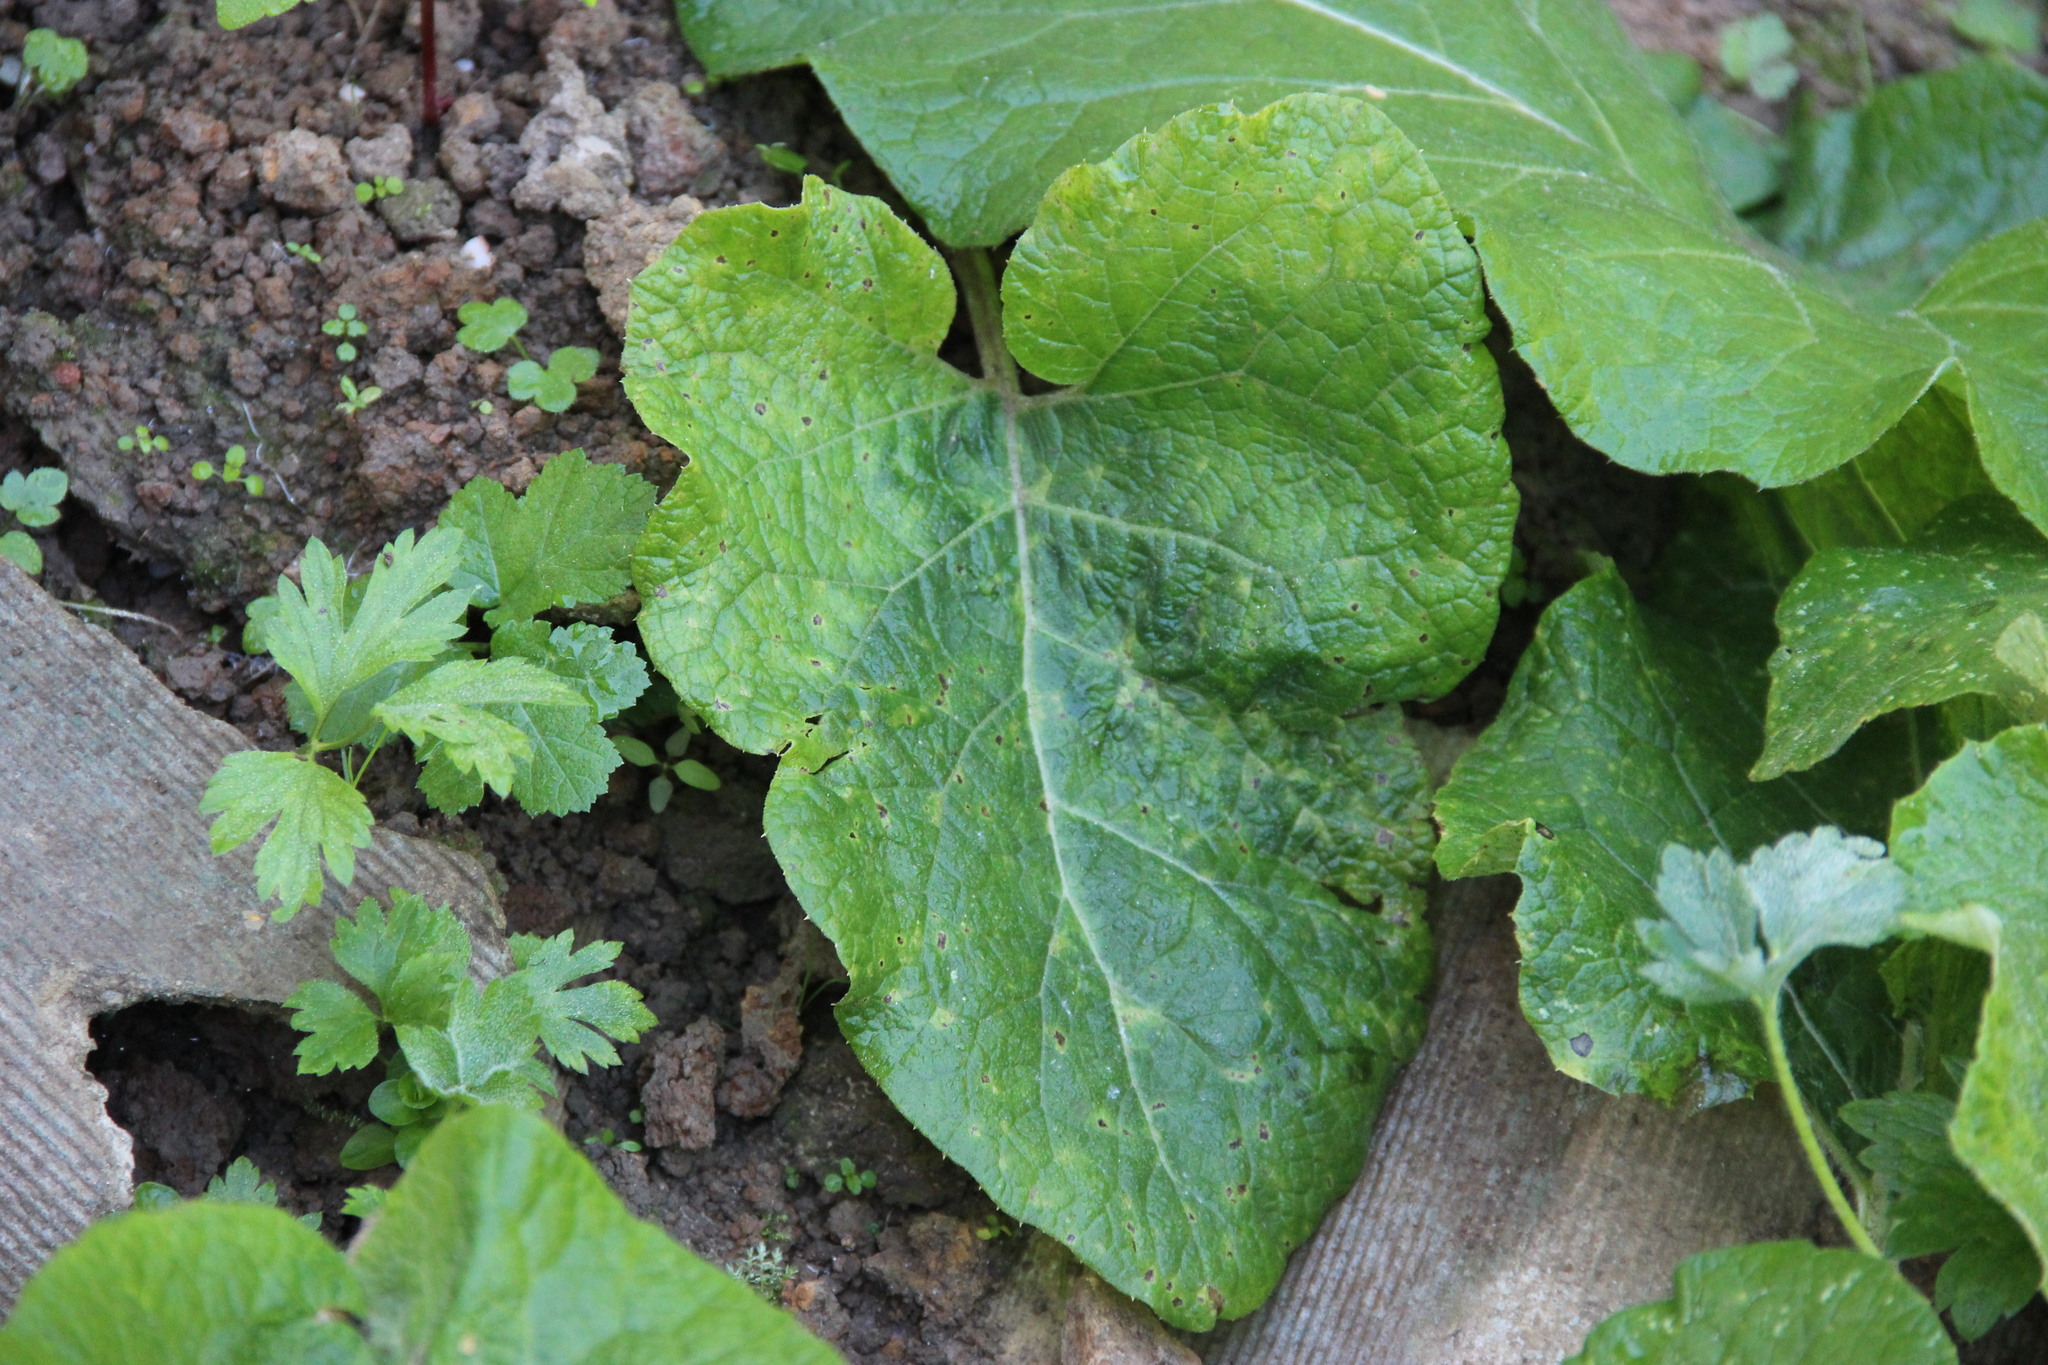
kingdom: Plantae
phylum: Tracheophyta
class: Magnoliopsida
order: Asterales
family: Asteraceae
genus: Arctium
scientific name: Arctium
